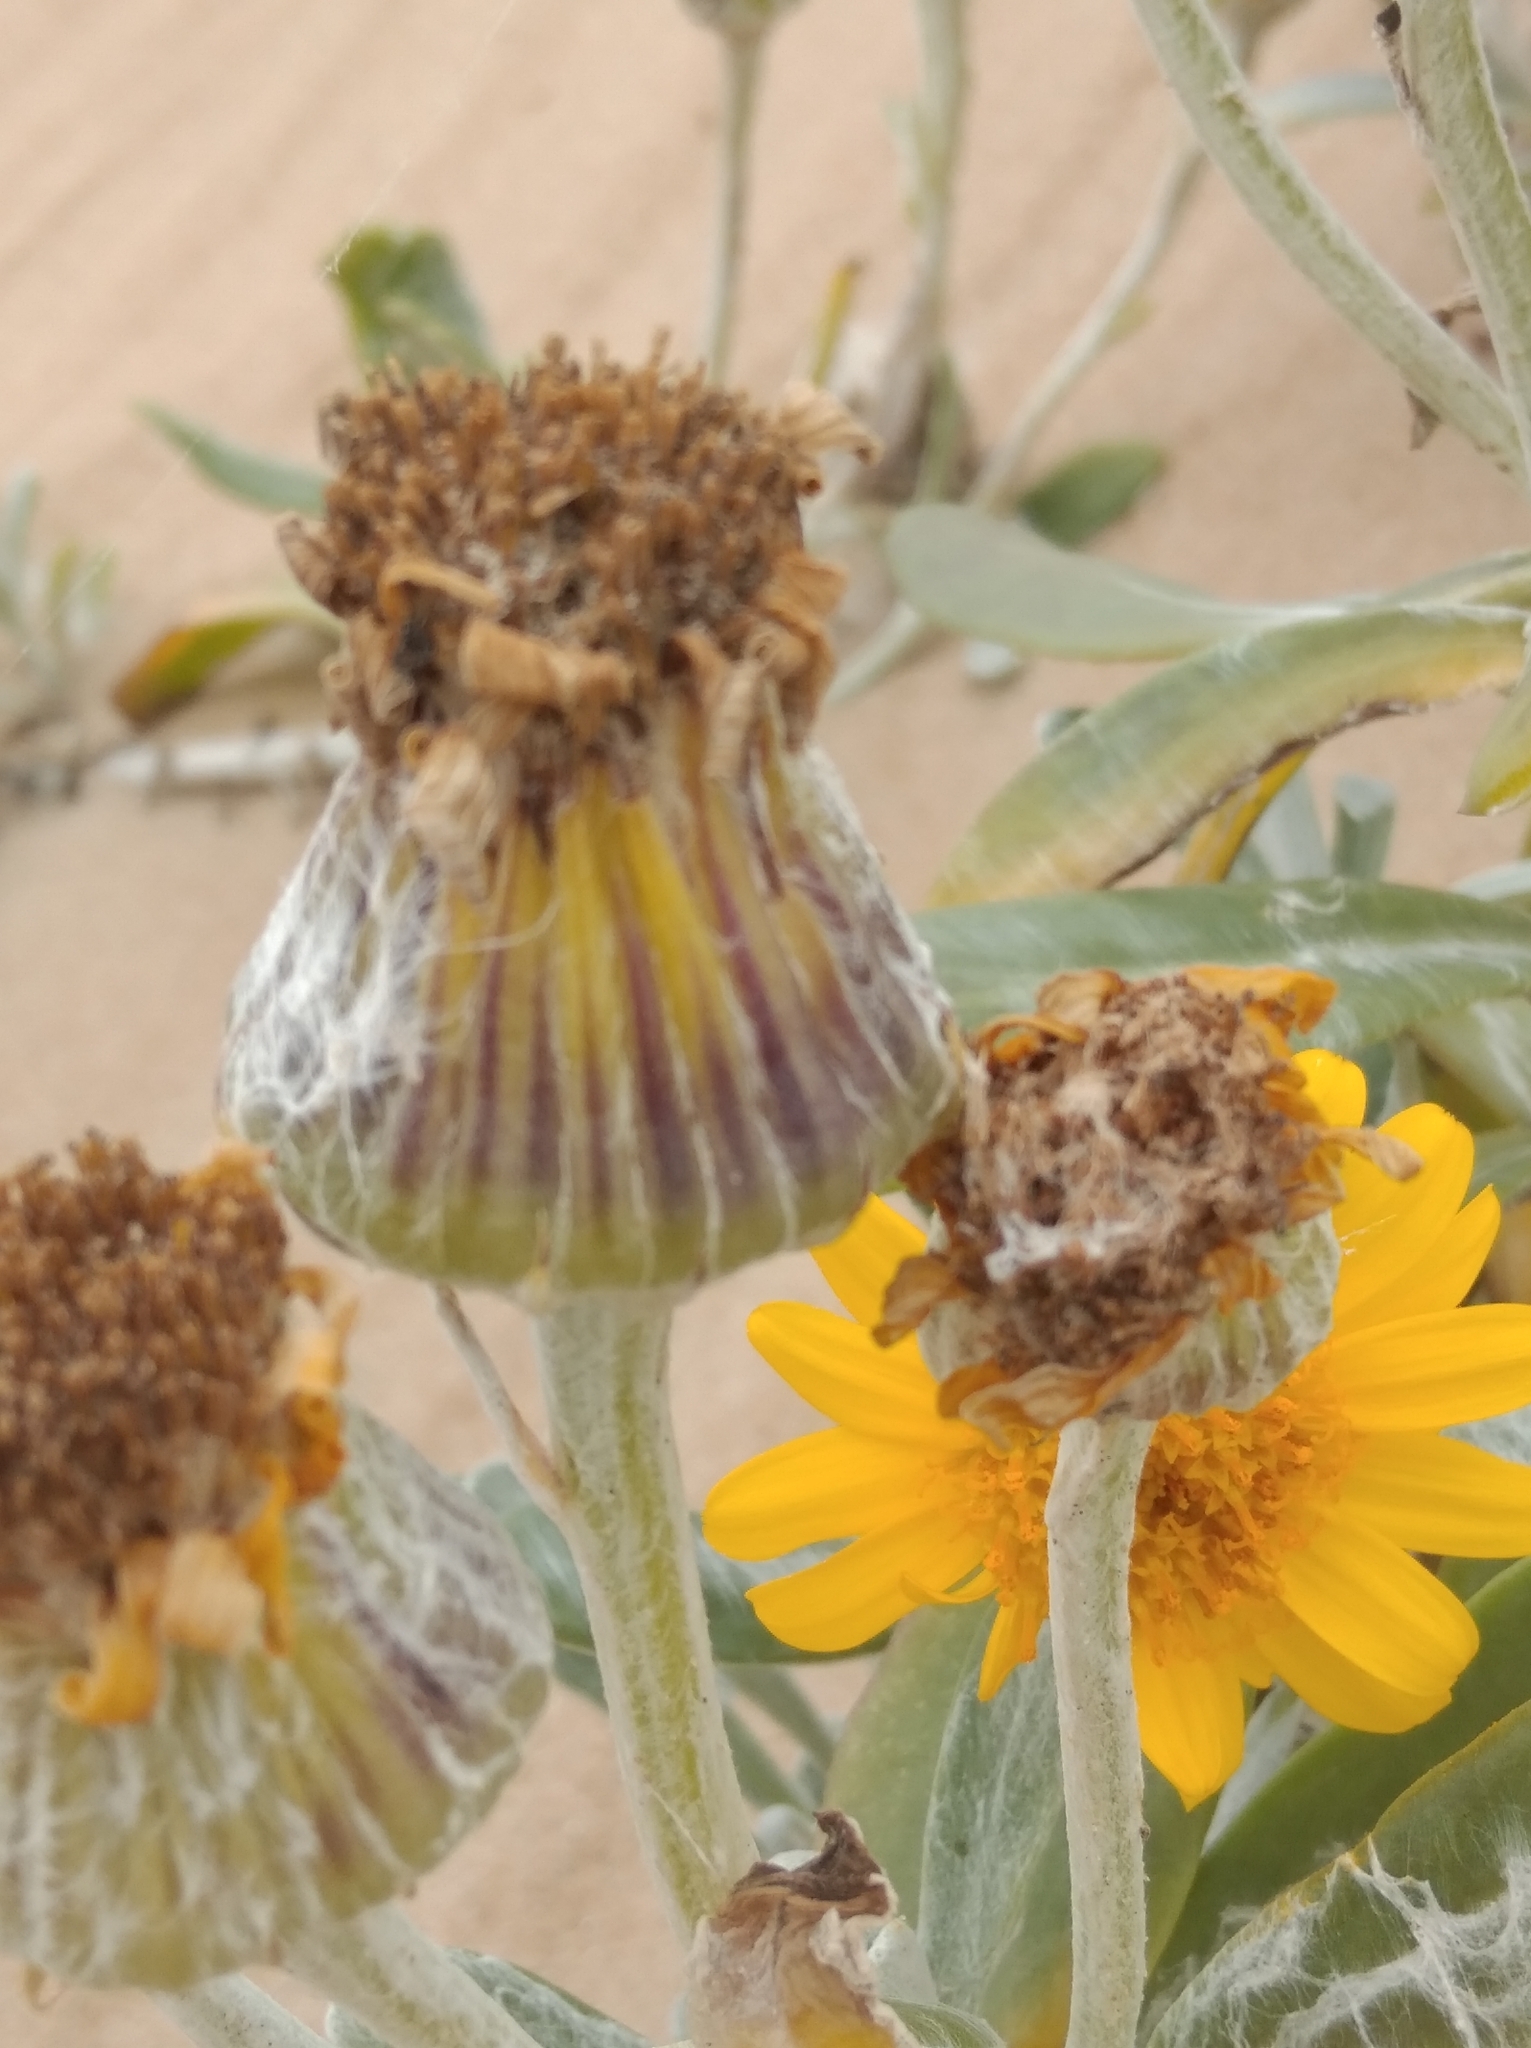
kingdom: Plantae
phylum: Tracheophyta
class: Magnoliopsida
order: Asterales
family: Asteraceae
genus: Senecio
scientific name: Senecio crassiflorus
